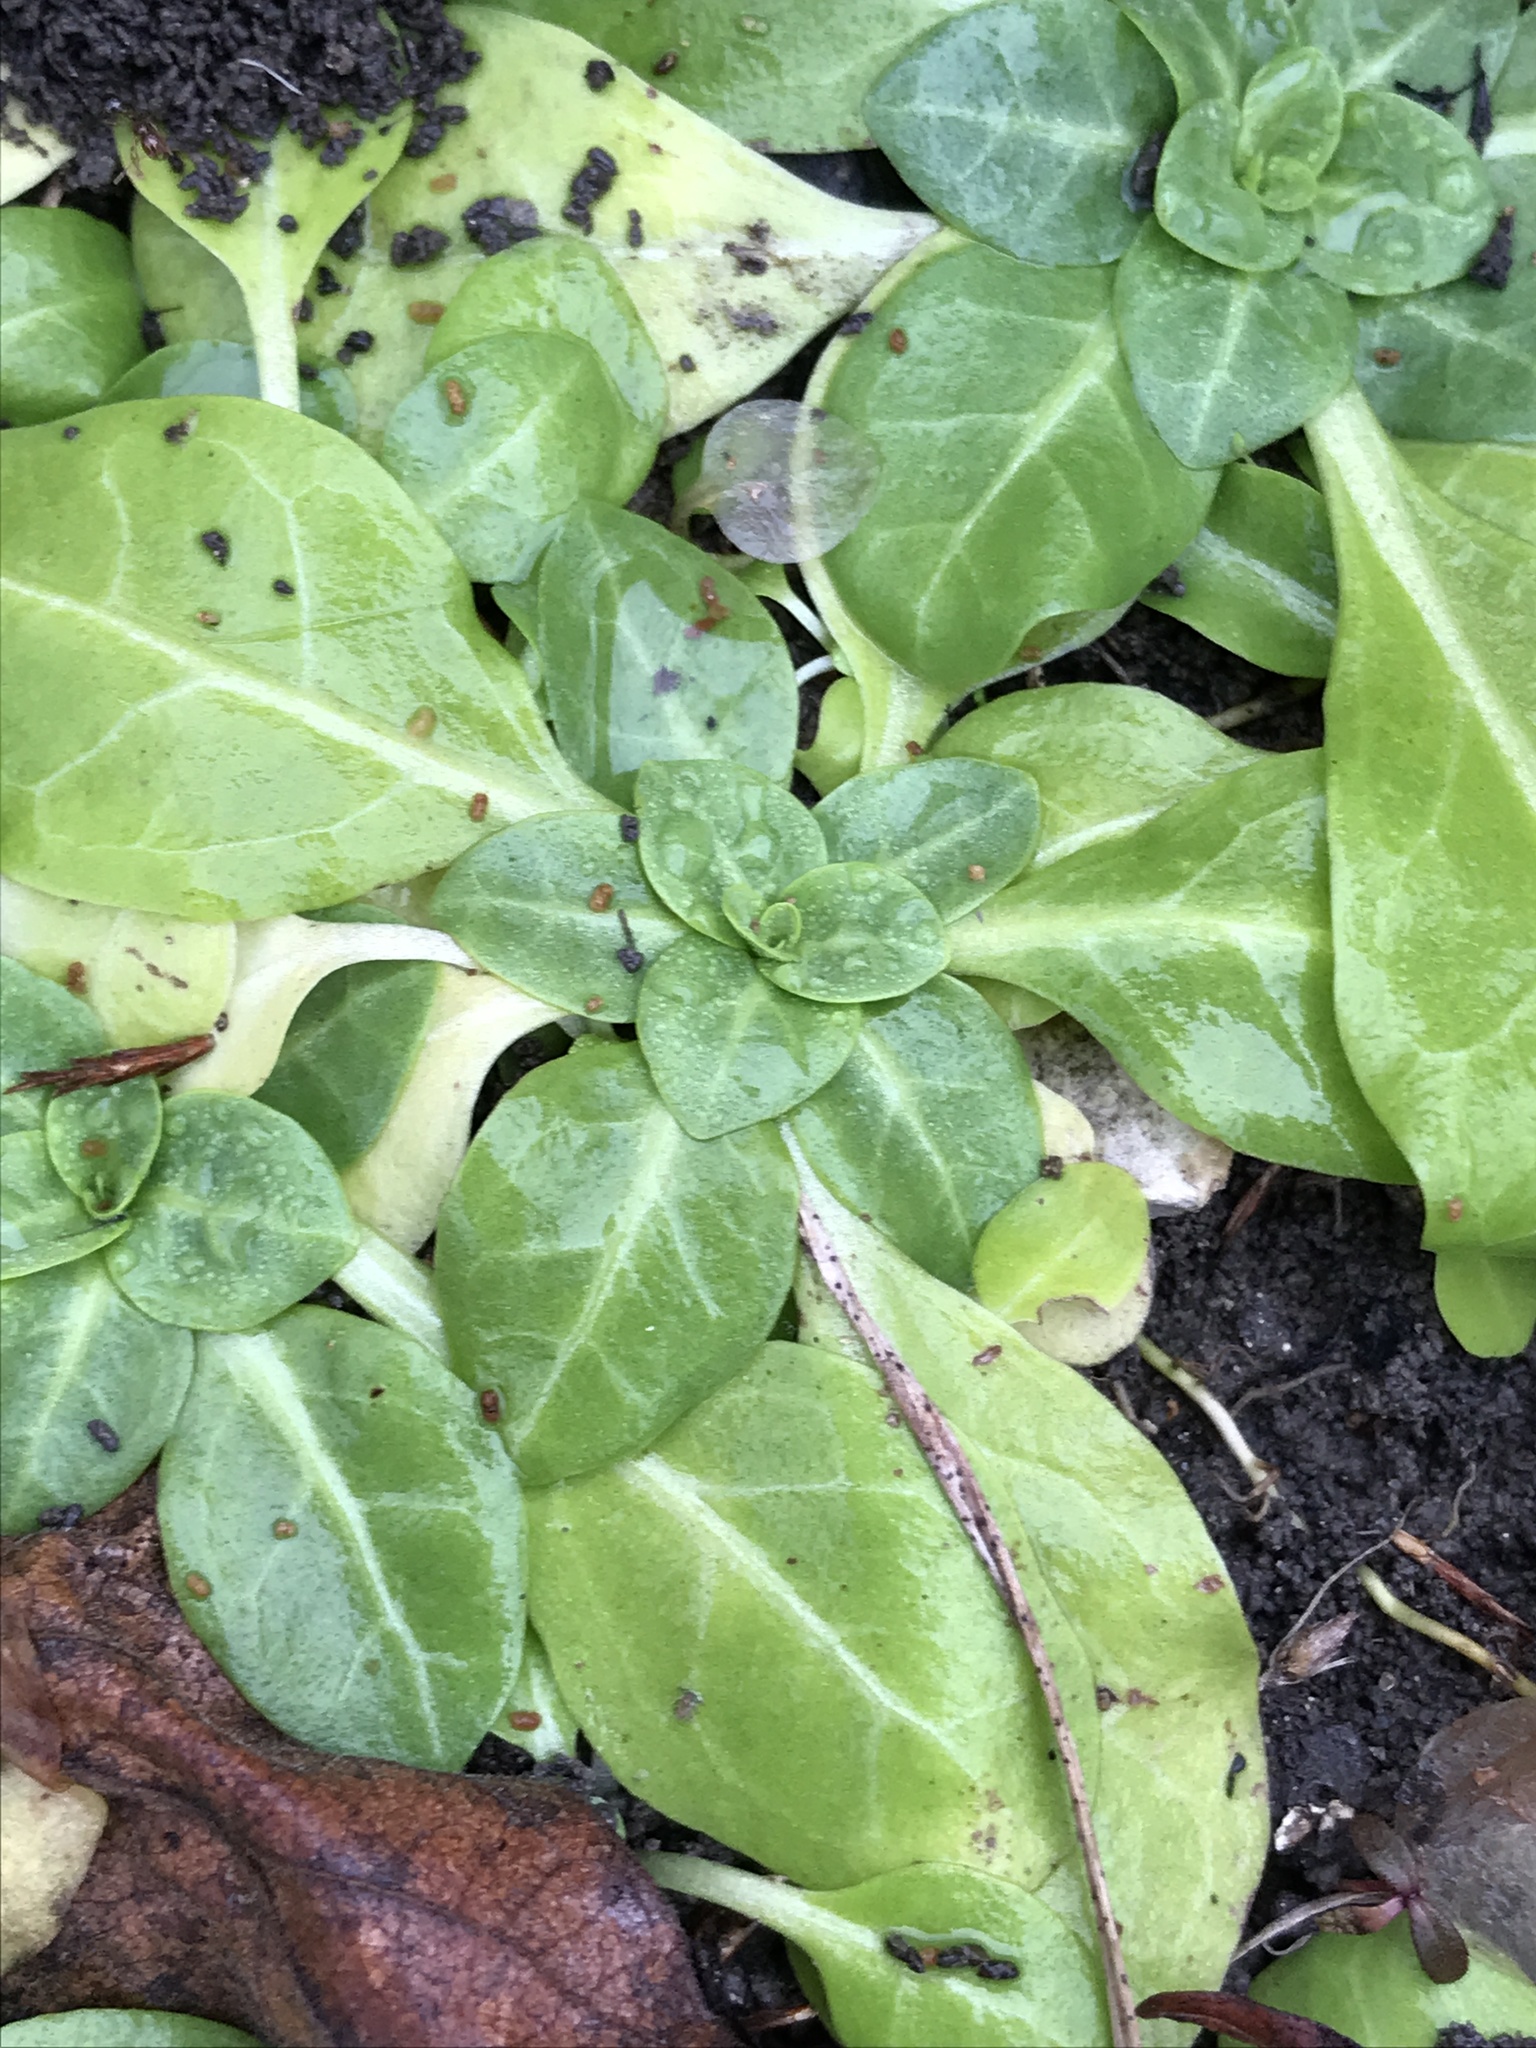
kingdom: Plantae
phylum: Tracheophyta
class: Magnoliopsida
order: Ericales
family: Primulaceae
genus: Samolus
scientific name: Samolus parviflorus
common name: False water pimpernel
